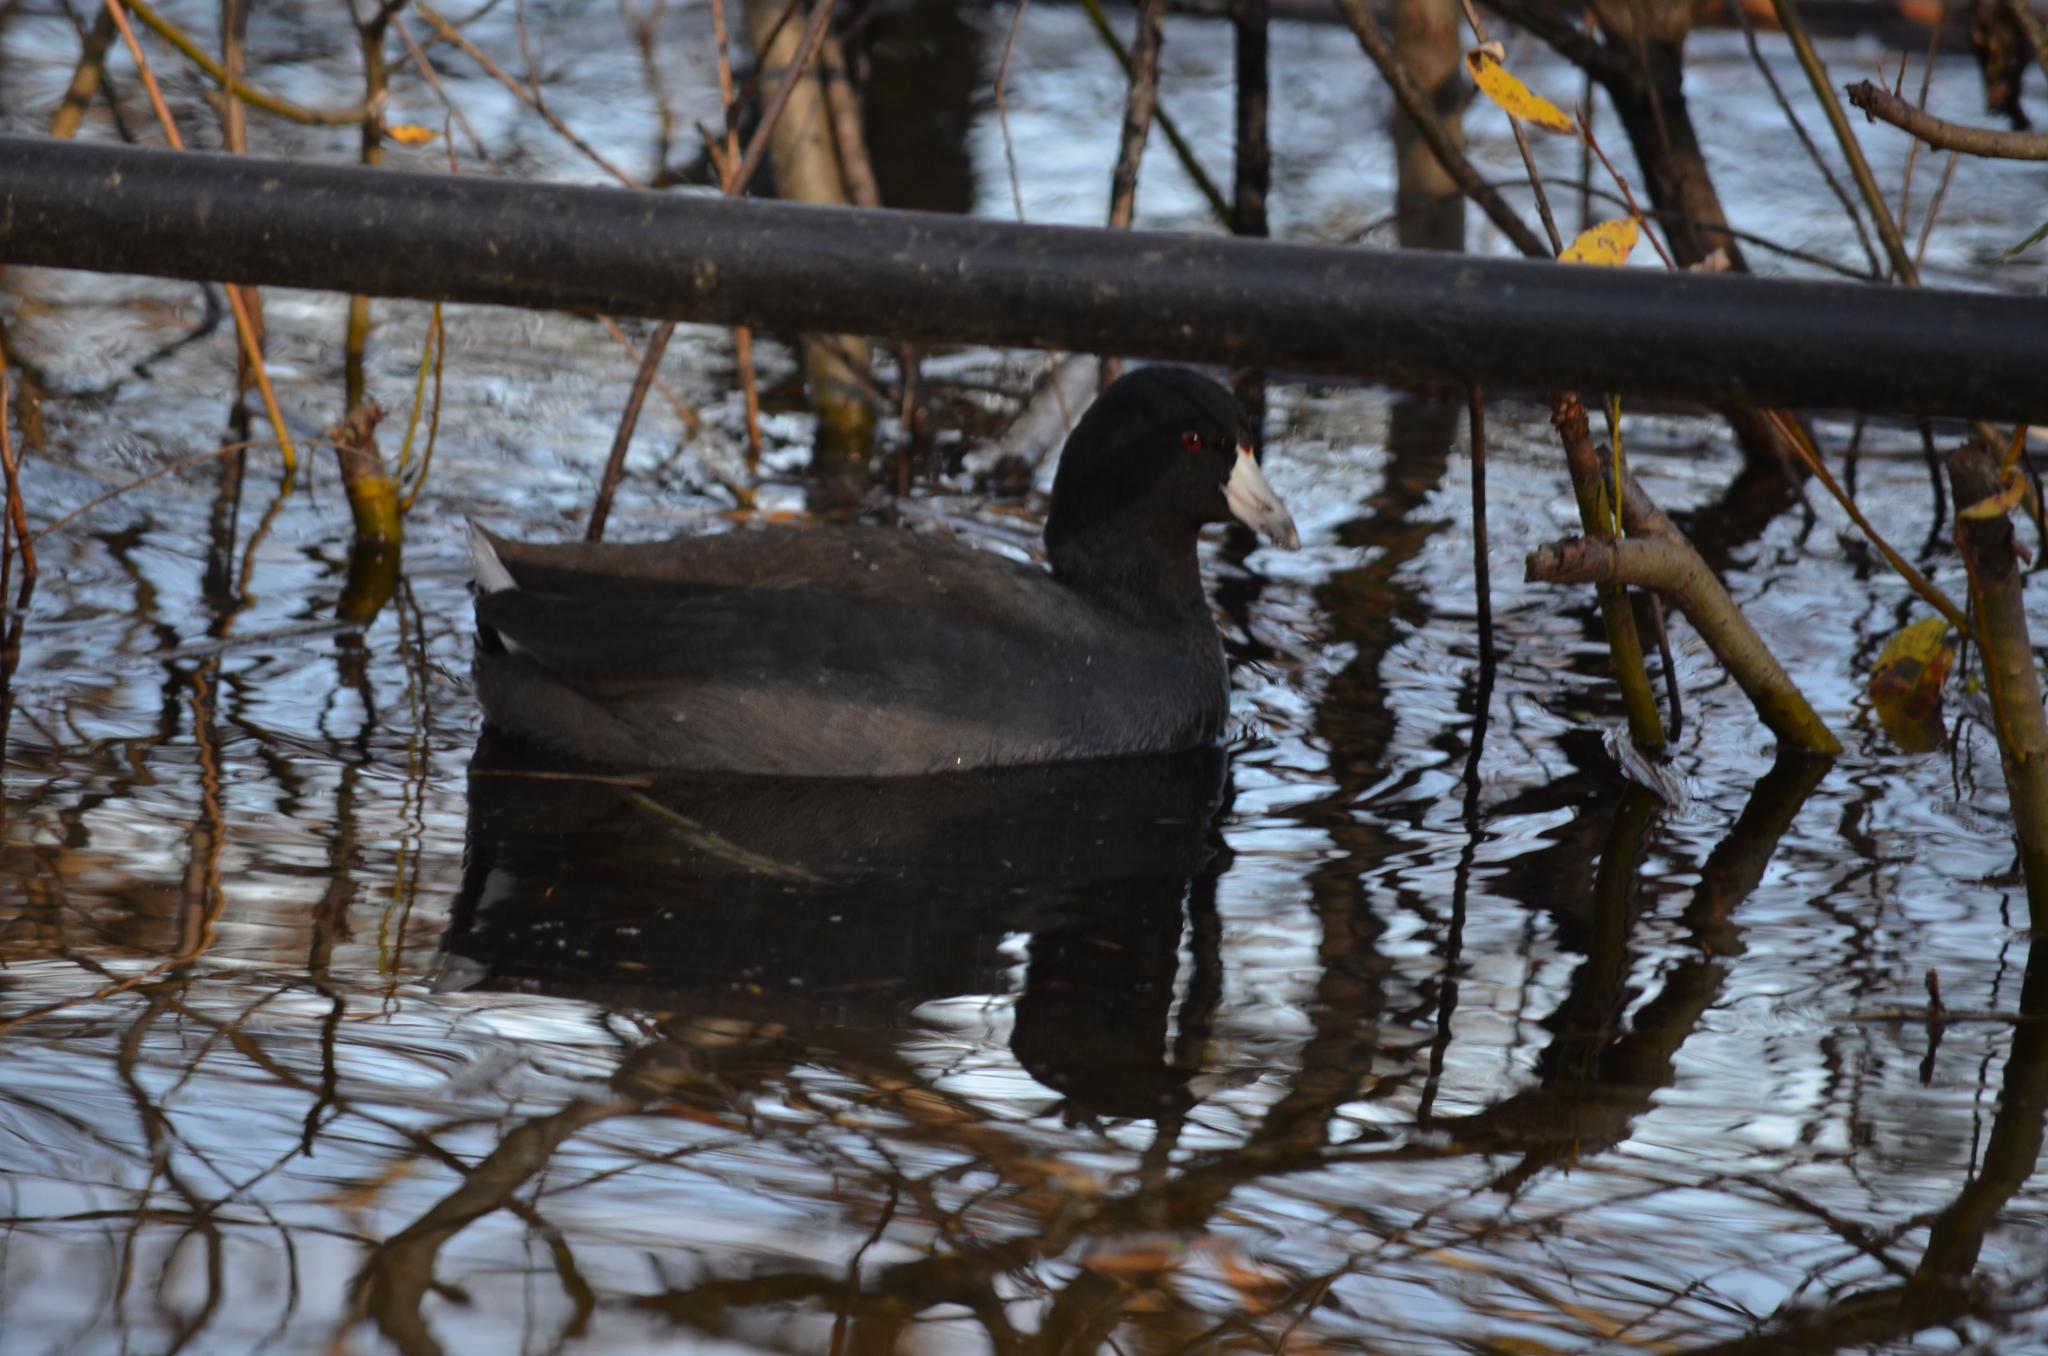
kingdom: Animalia
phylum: Chordata
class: Aves
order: Gruiformes
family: Rallidae
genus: Fulica
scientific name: Fulica americana
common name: American coot
